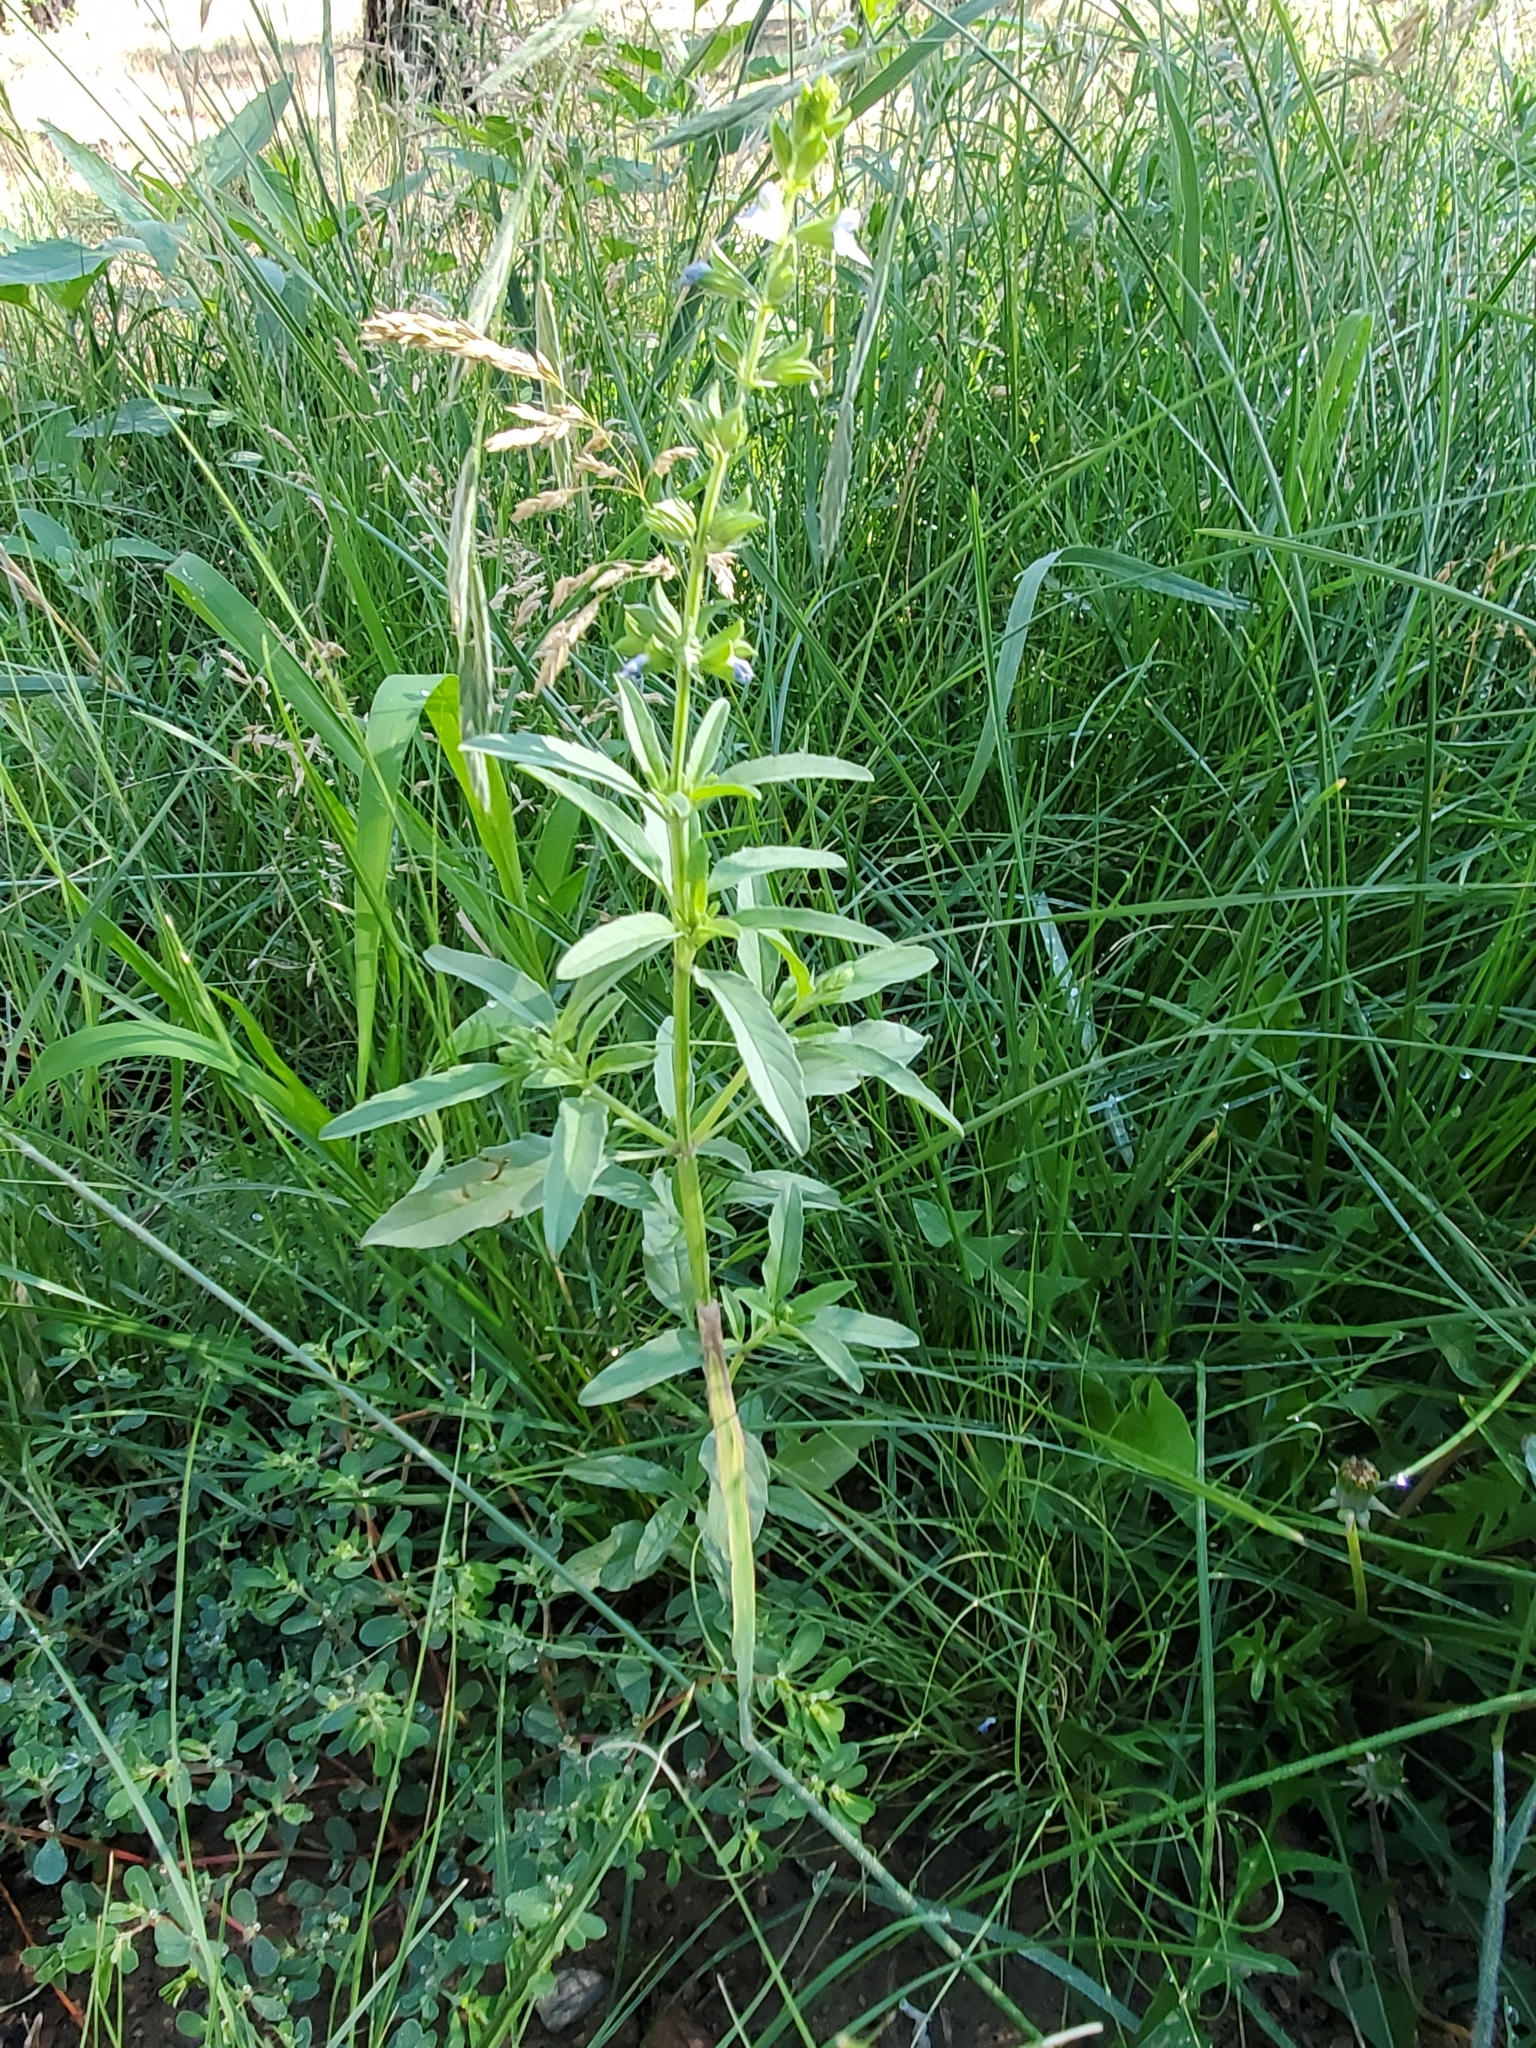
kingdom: Plantae
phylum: Tracheophyta
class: Magnoliopsida
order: Lamiales
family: Lamiaceae
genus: Salvia
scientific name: Salvia reflexa
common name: Mintweed
